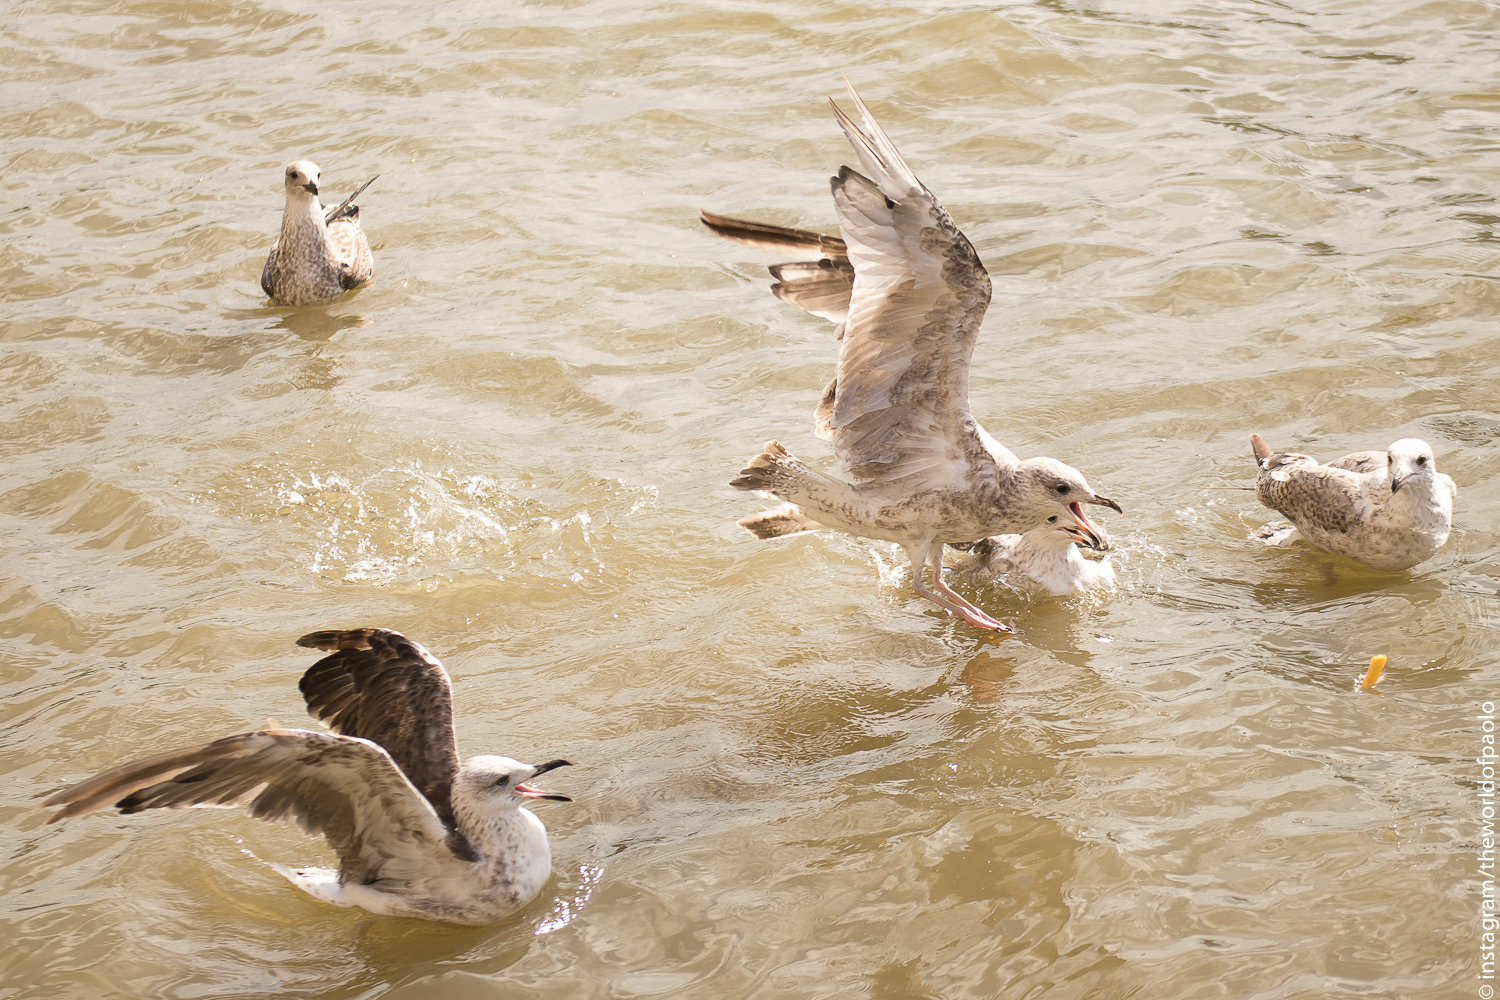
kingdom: Animalia
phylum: Chordata
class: Aves
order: Charadriiformes
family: Laridae
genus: Larus
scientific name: Larus argentatus
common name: Herring gull
